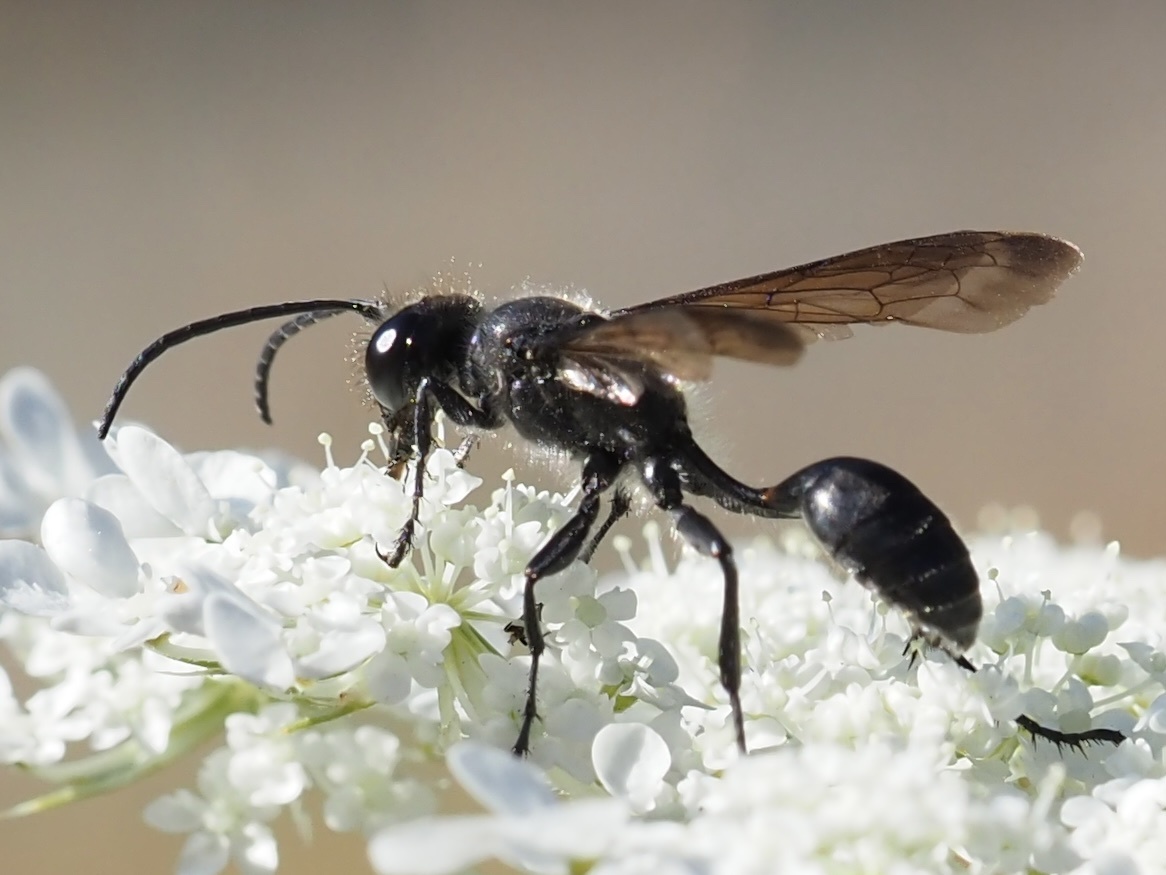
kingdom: Animalia
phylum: Arthropoda
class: Insecta
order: Hymenoptera
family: Sphecidae
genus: Isodontia
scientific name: Isodontia mexicana
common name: Mud dauber
